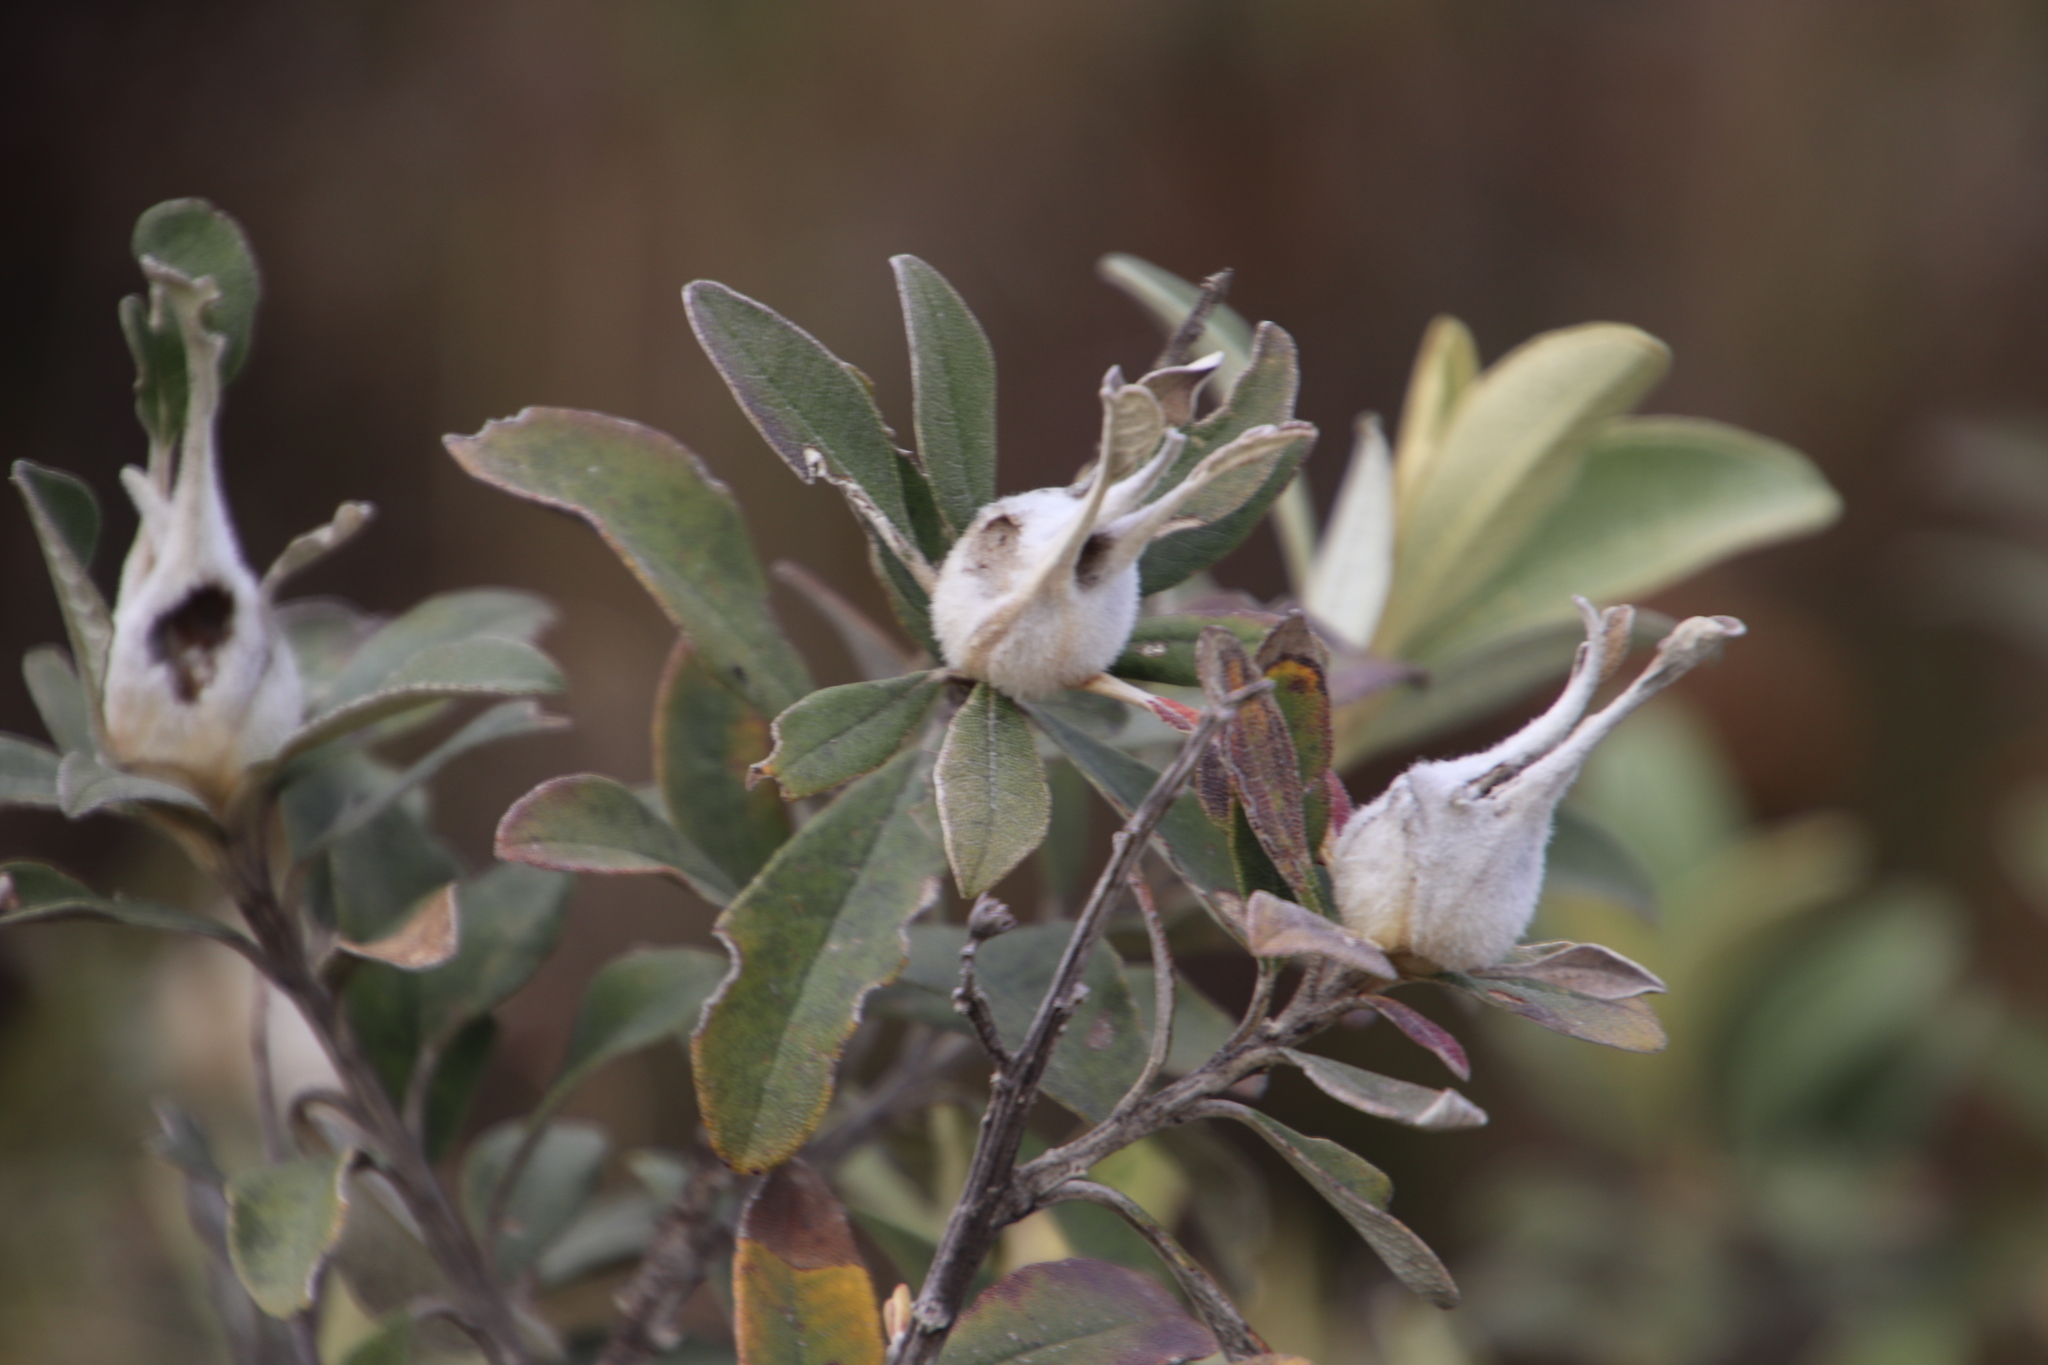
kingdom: Plantae
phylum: Tracheophyta
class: Magnoliopsida
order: Asterales
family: Asteraceae
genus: Tarchonanthus
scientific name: Tarchonanthus littoralis
